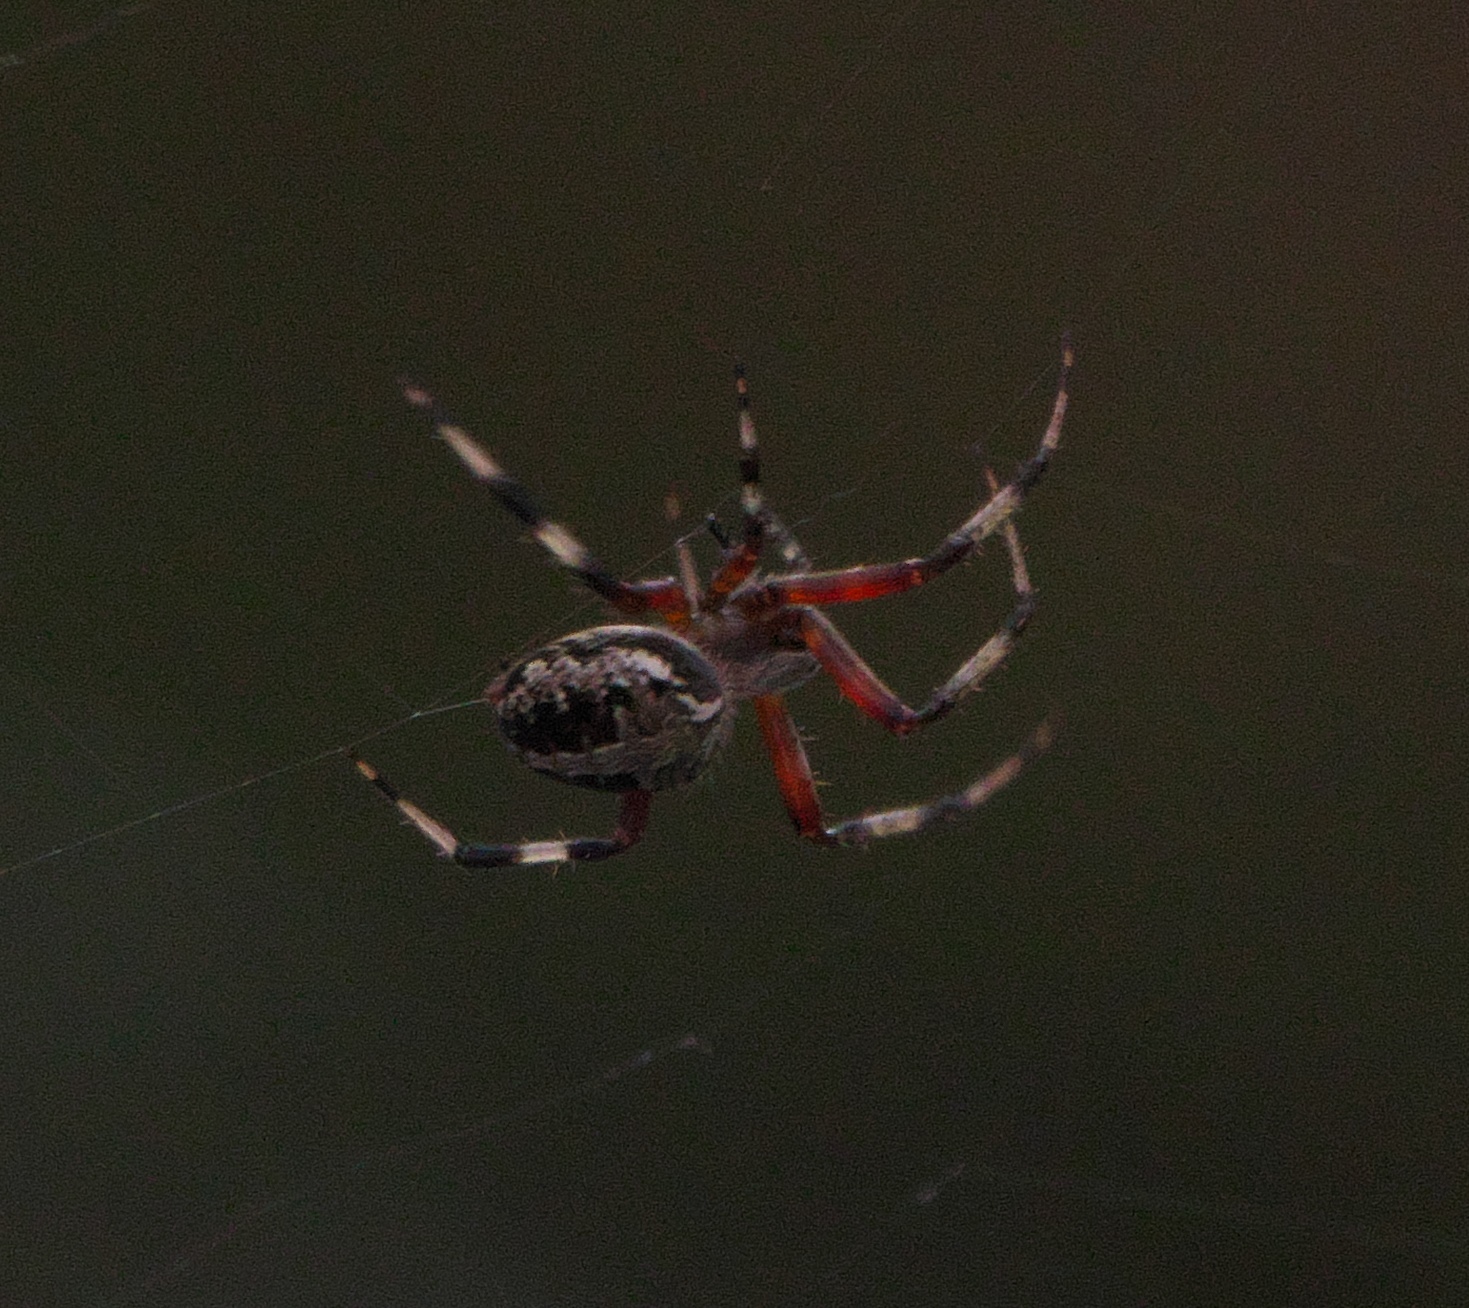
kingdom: Animalia
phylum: Arthropoda
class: Arachnida
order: Araneae
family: Araneidae
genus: Neoscona
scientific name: Neoscona domiciliorum
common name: Red-femured spotted orbweaver
